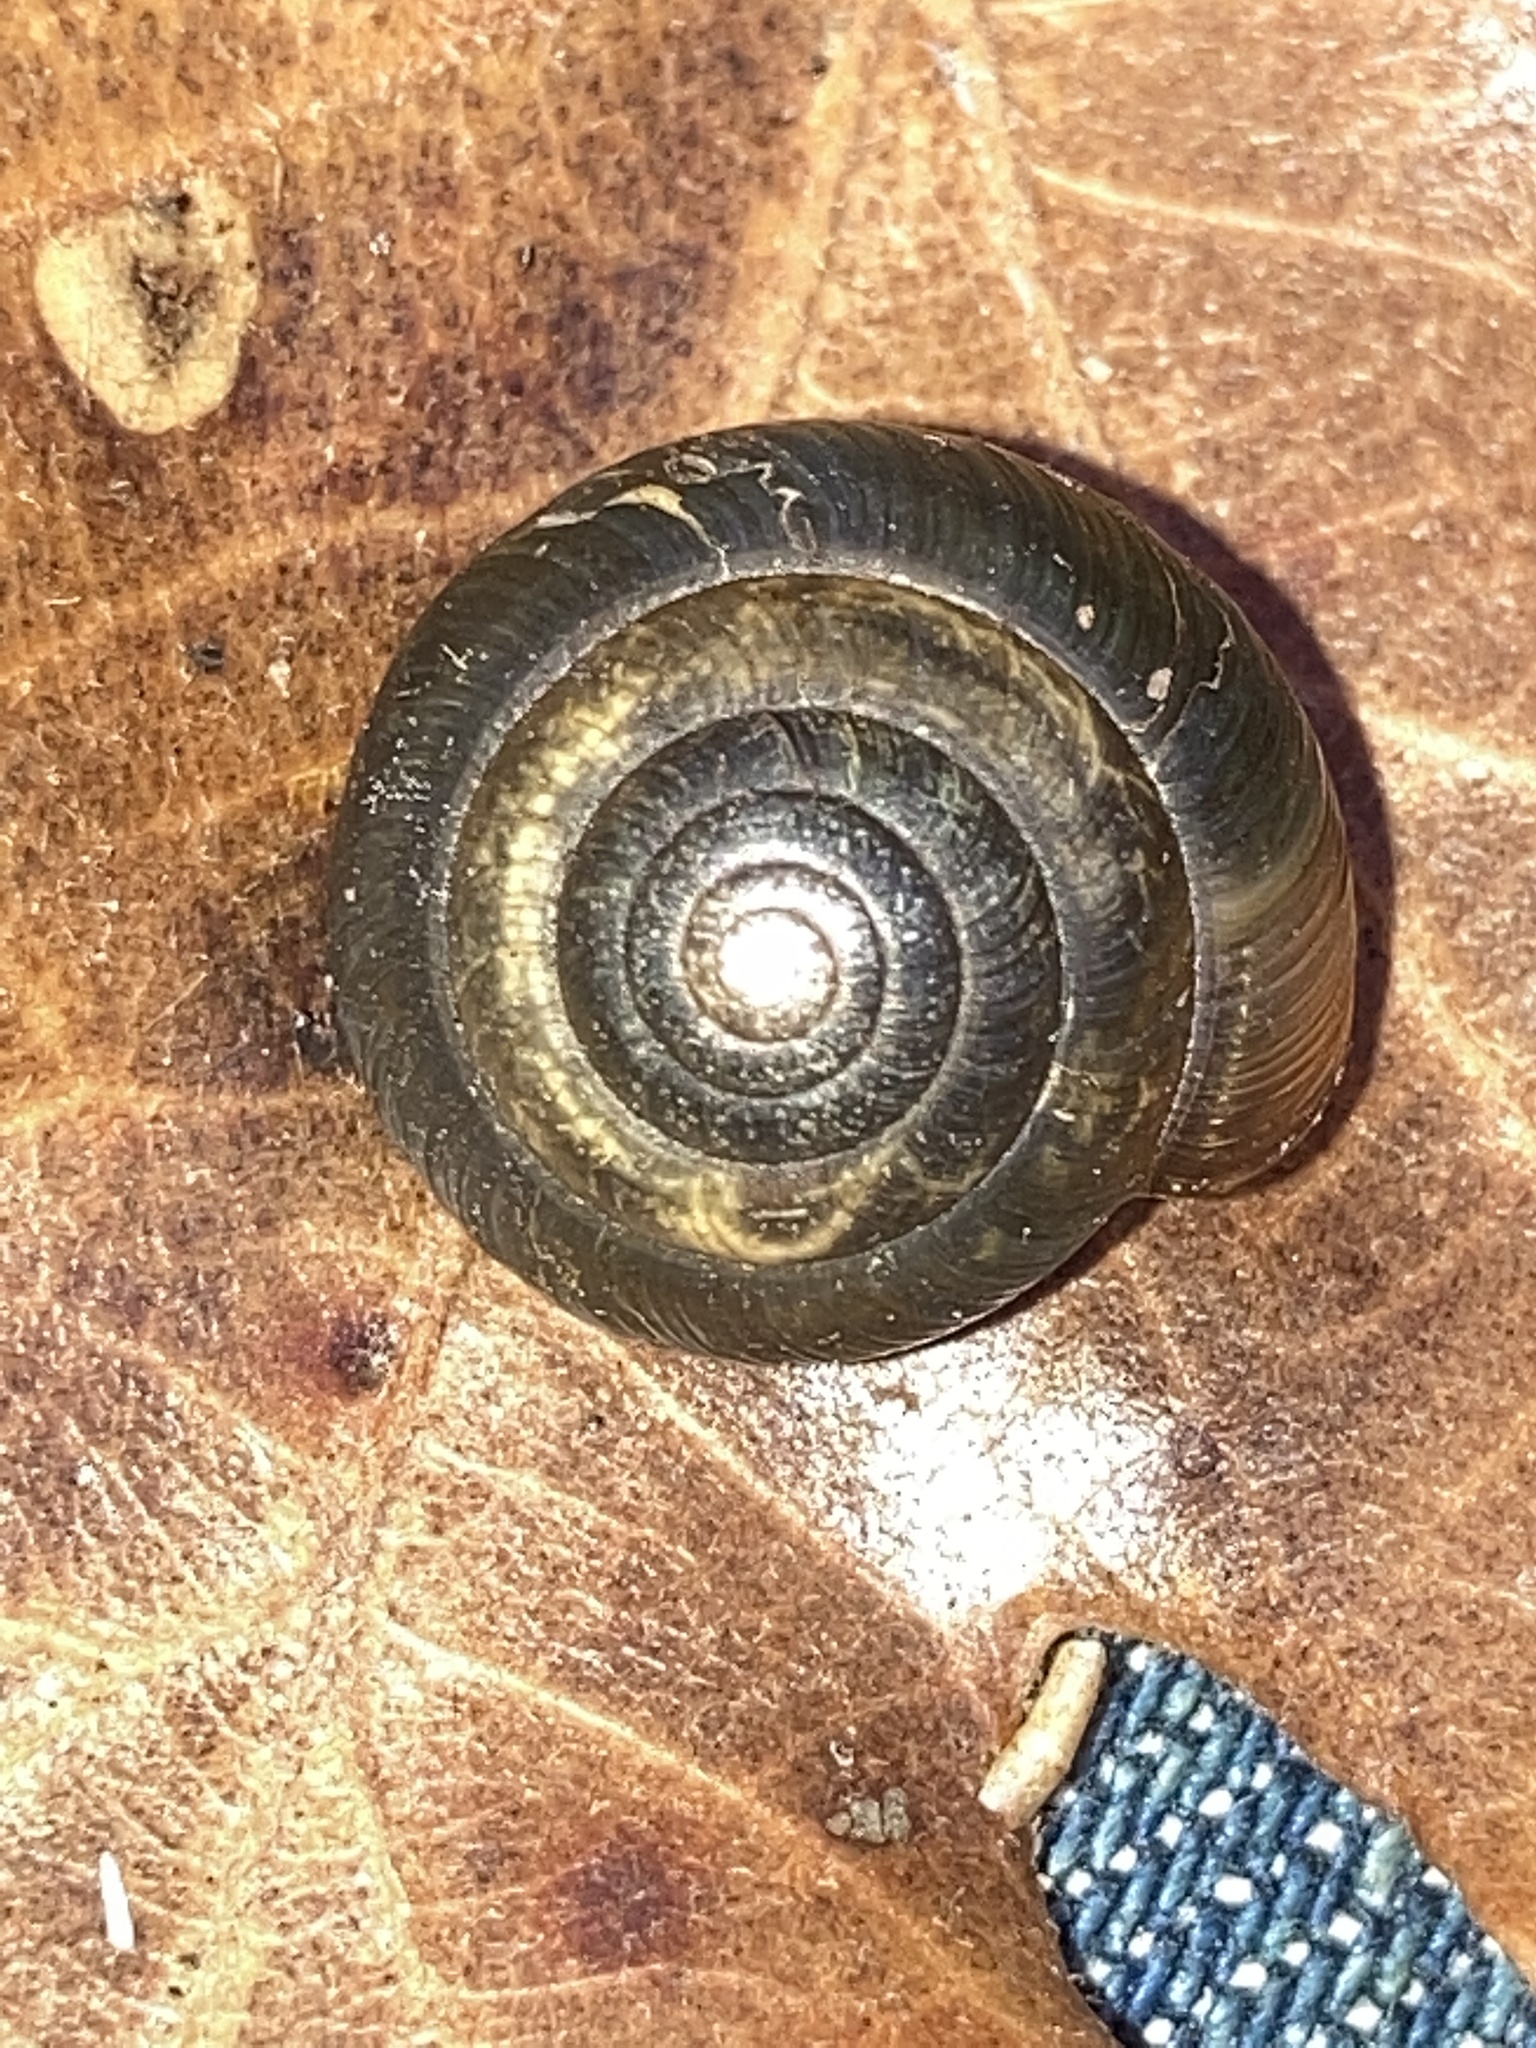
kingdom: Animalia
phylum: Mollusca
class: Gastropoda
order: Stylommatophora
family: Gastrodontidae
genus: Ventridens
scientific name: Ventridens ligera
